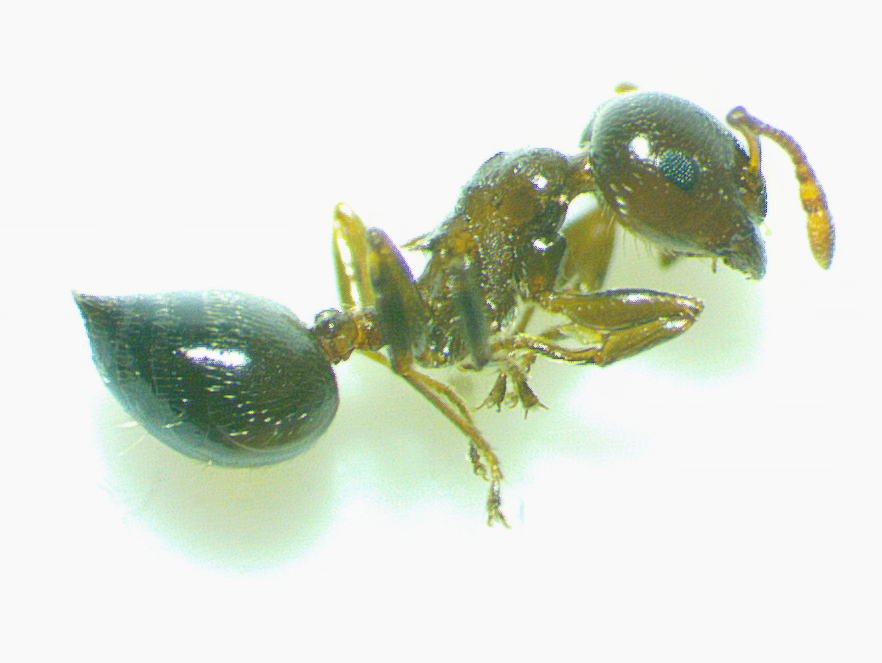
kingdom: Animalia
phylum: Arthropoda
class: Insecta
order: Hymenoptera
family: Formicidae
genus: Crematogaster
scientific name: Crematogaster ashmeadi
